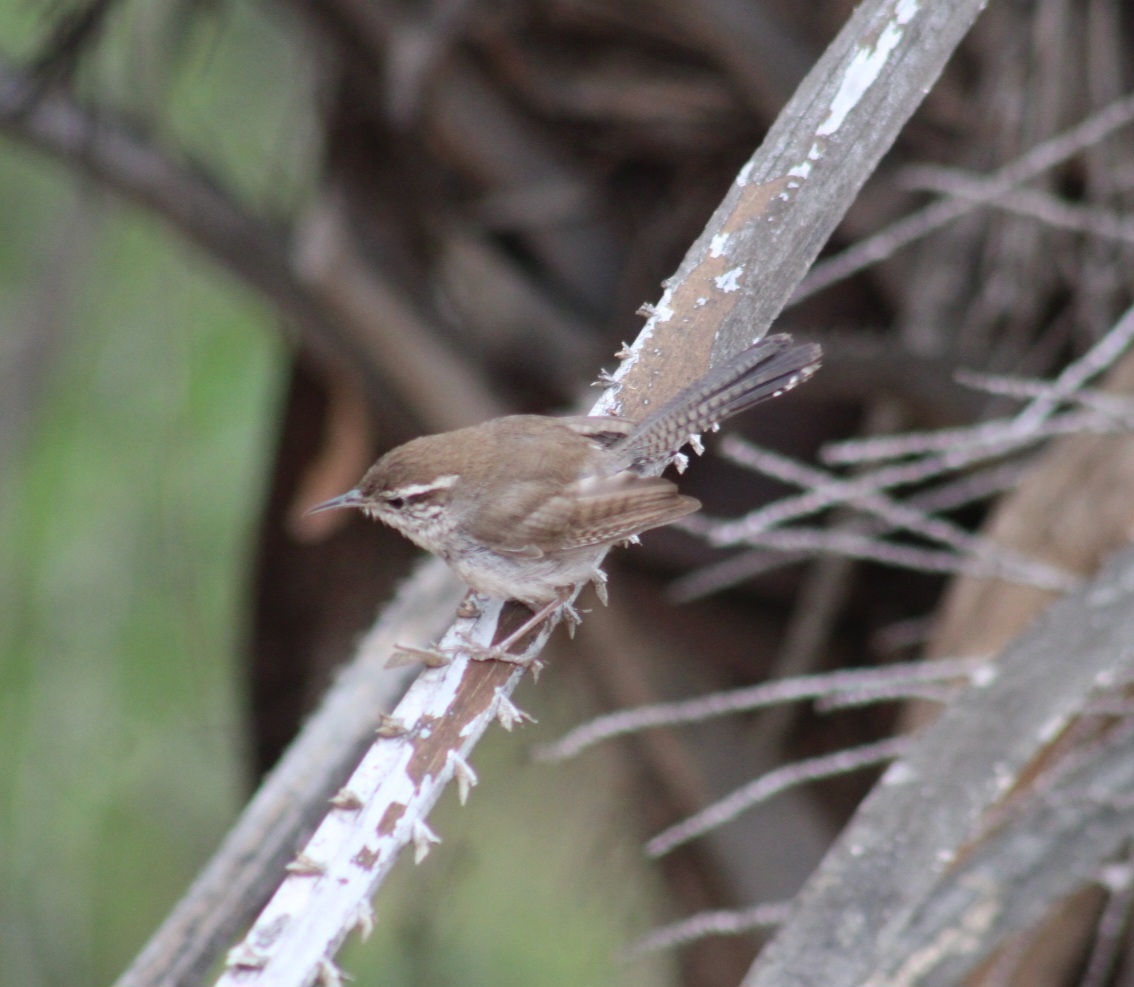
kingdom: Animalia
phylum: Chordata
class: Aves
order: Passeriformes
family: Troglodytidae
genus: Thryomanes
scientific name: Thryomanes bewickii
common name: Bewick's wren
